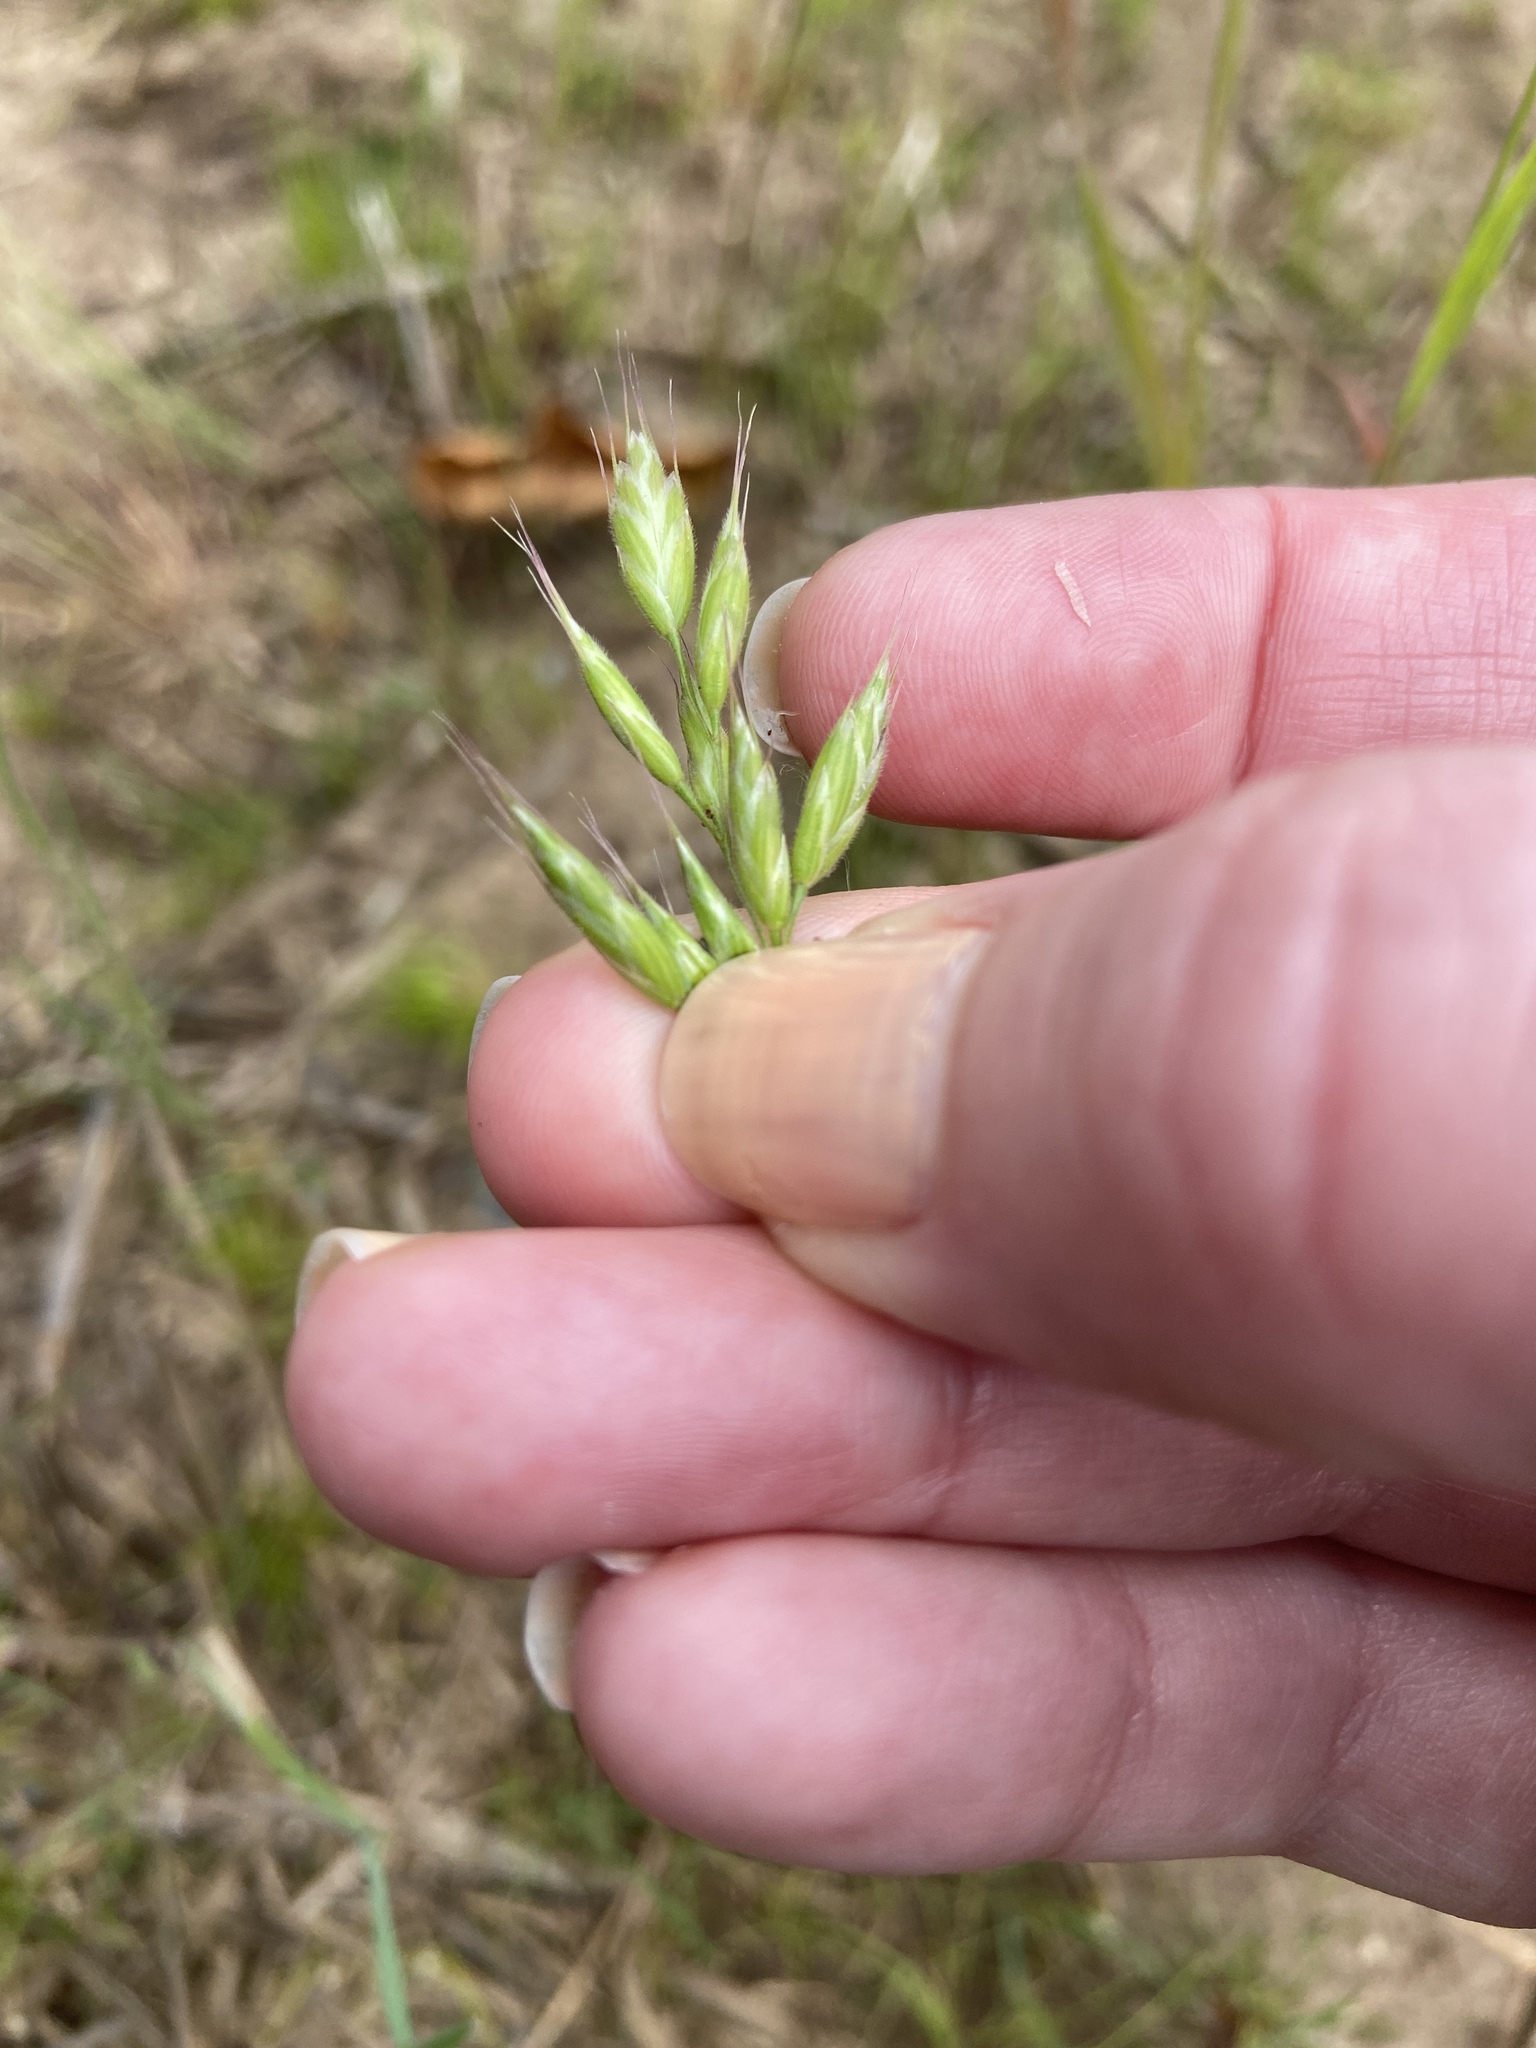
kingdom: Plantae
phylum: Tracheophyta
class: Liliopsida
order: Poales
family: Poaceae
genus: Bromus
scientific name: Bromus hordeaceus
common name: Soft brome
